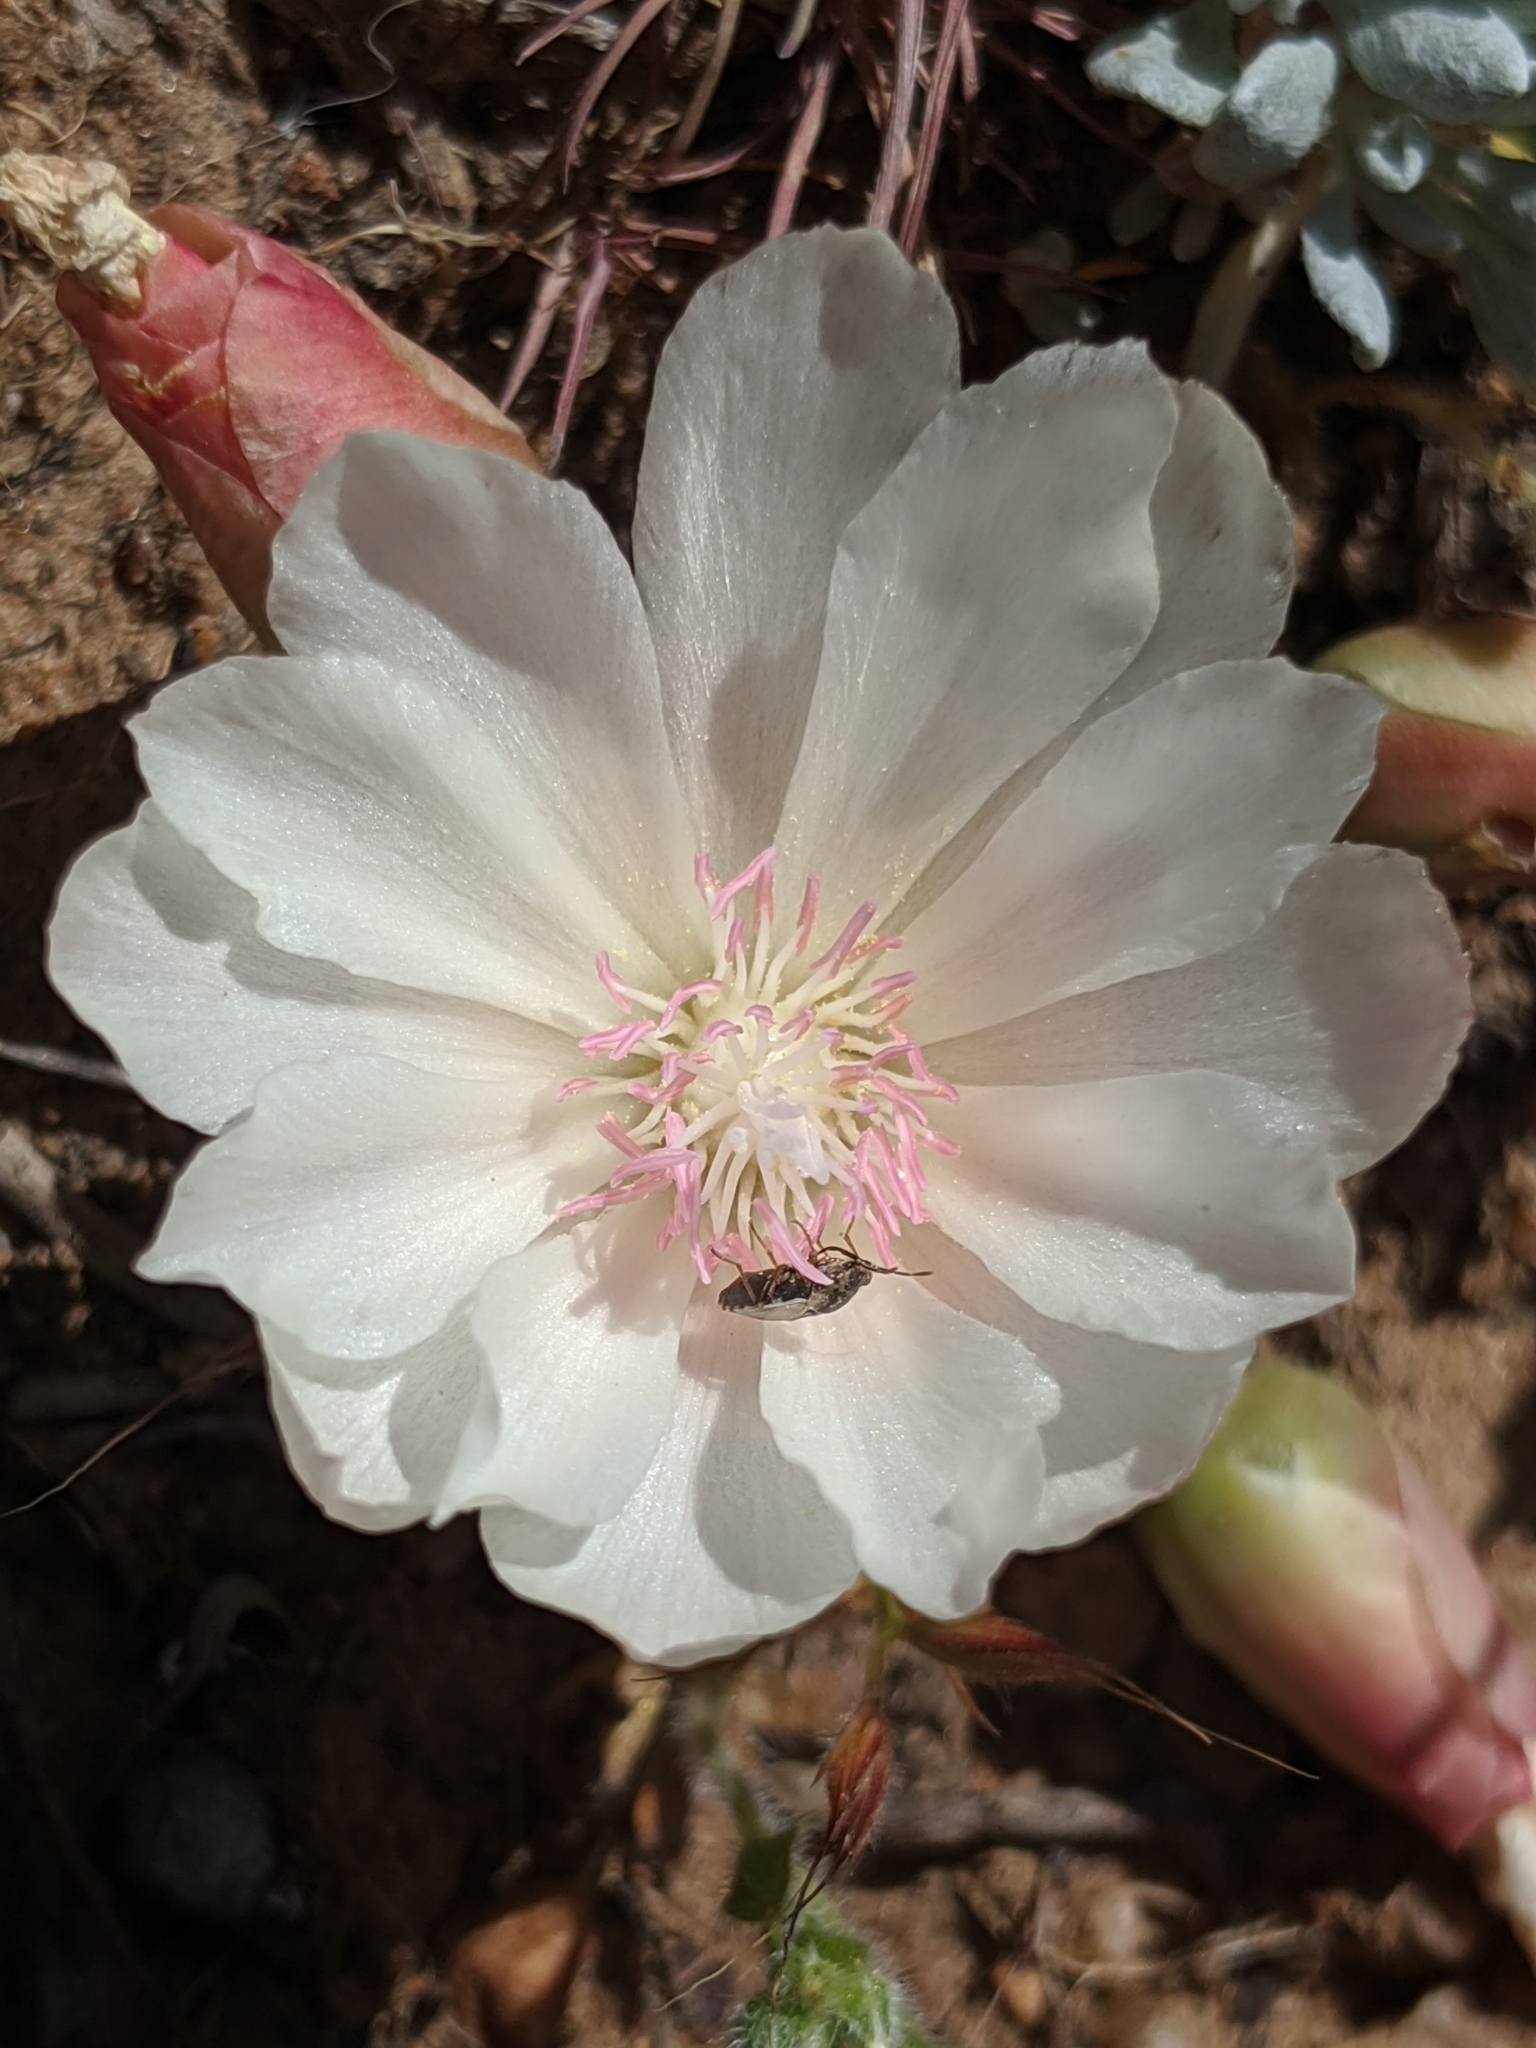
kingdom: Plantae
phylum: Tracheophyta
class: Magnoliopsida
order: Caryophyllales
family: Montiaceae
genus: Lewisia
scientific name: Lewisia rediviva
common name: Bitter-root
